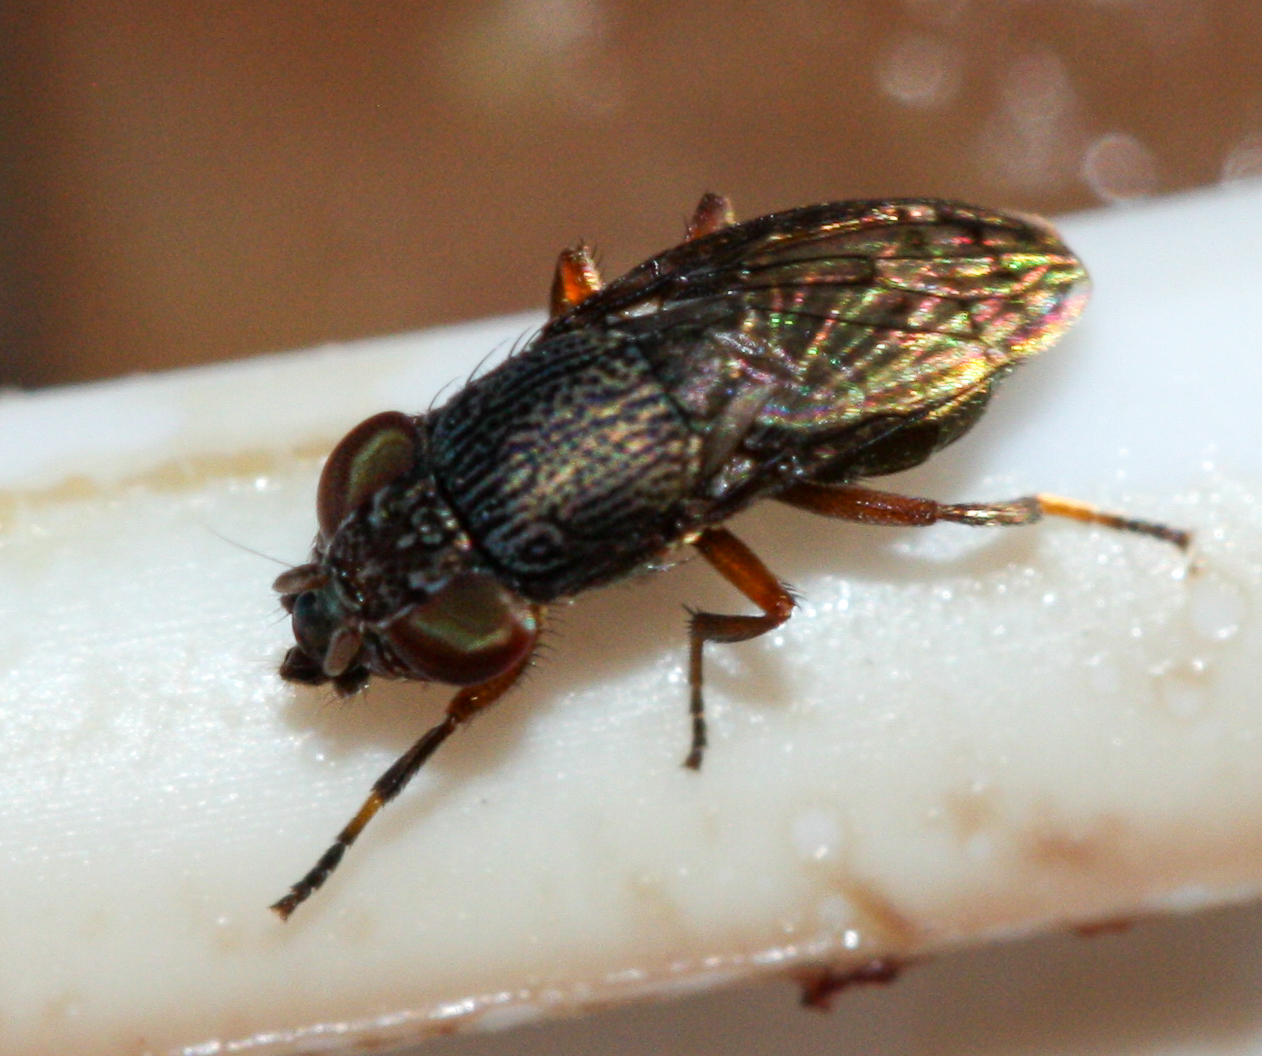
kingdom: Animalia
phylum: Arthropoda
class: Insecta
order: Diptera
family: Ulidiidae
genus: Notogramma
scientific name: Notogramma purpuratum
